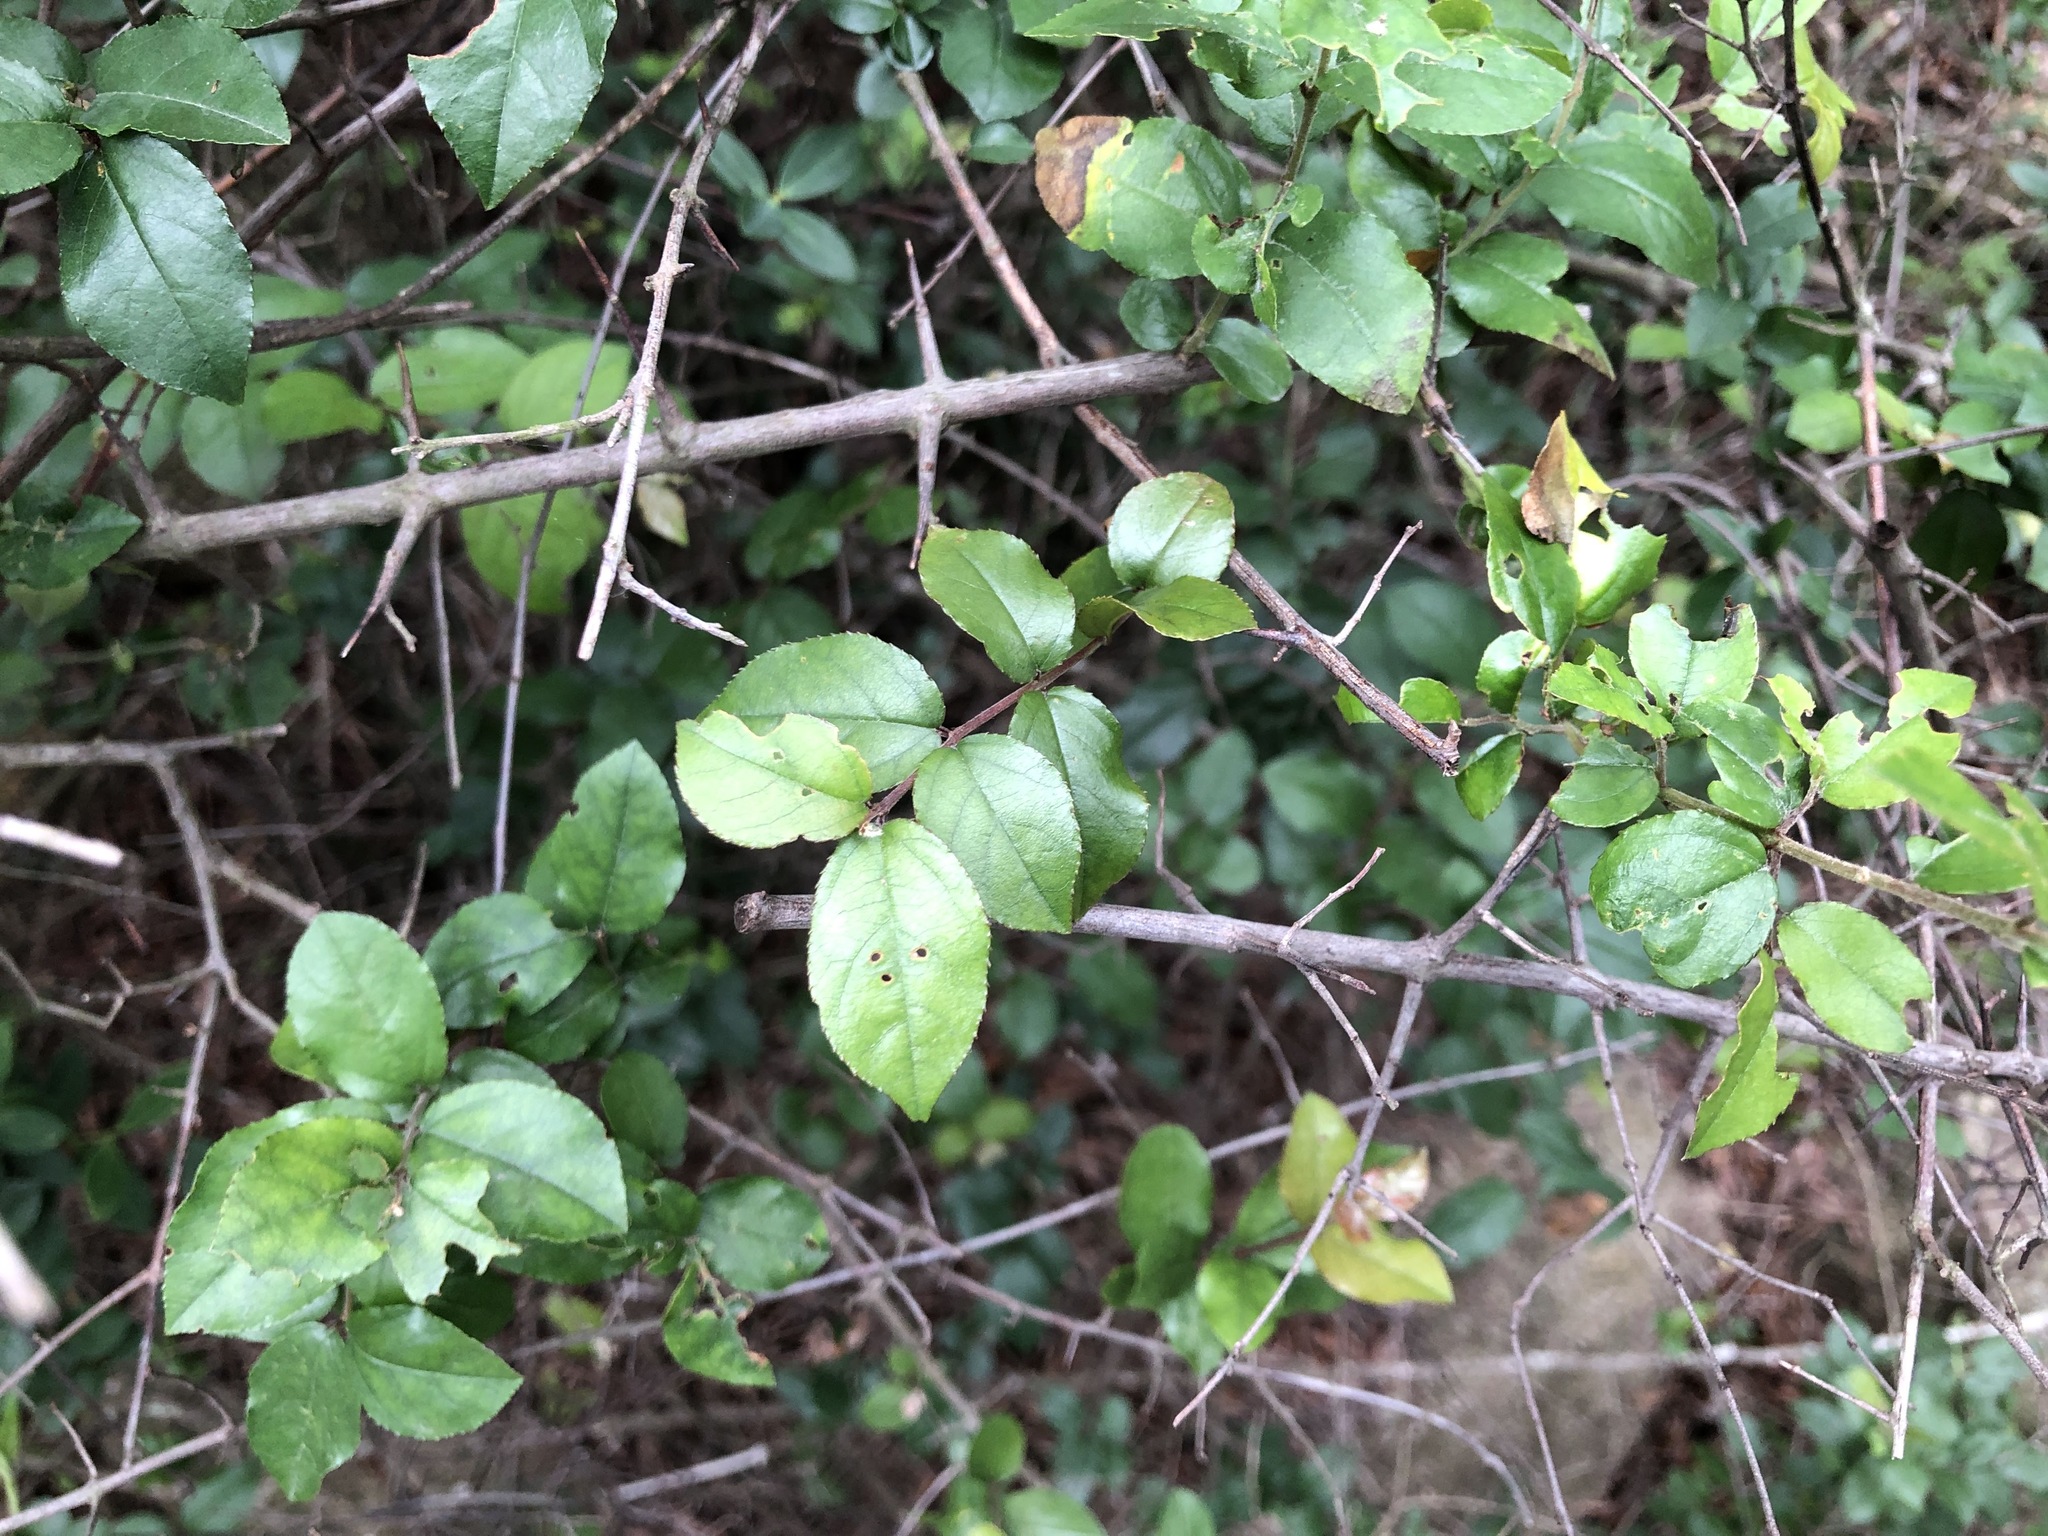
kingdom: Plantae
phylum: Tracheophyta
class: Magnoliopsida
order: Rosales
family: Rhamnaceae
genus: Sageretia
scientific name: Sageretia thea
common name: Pauper's-tea
